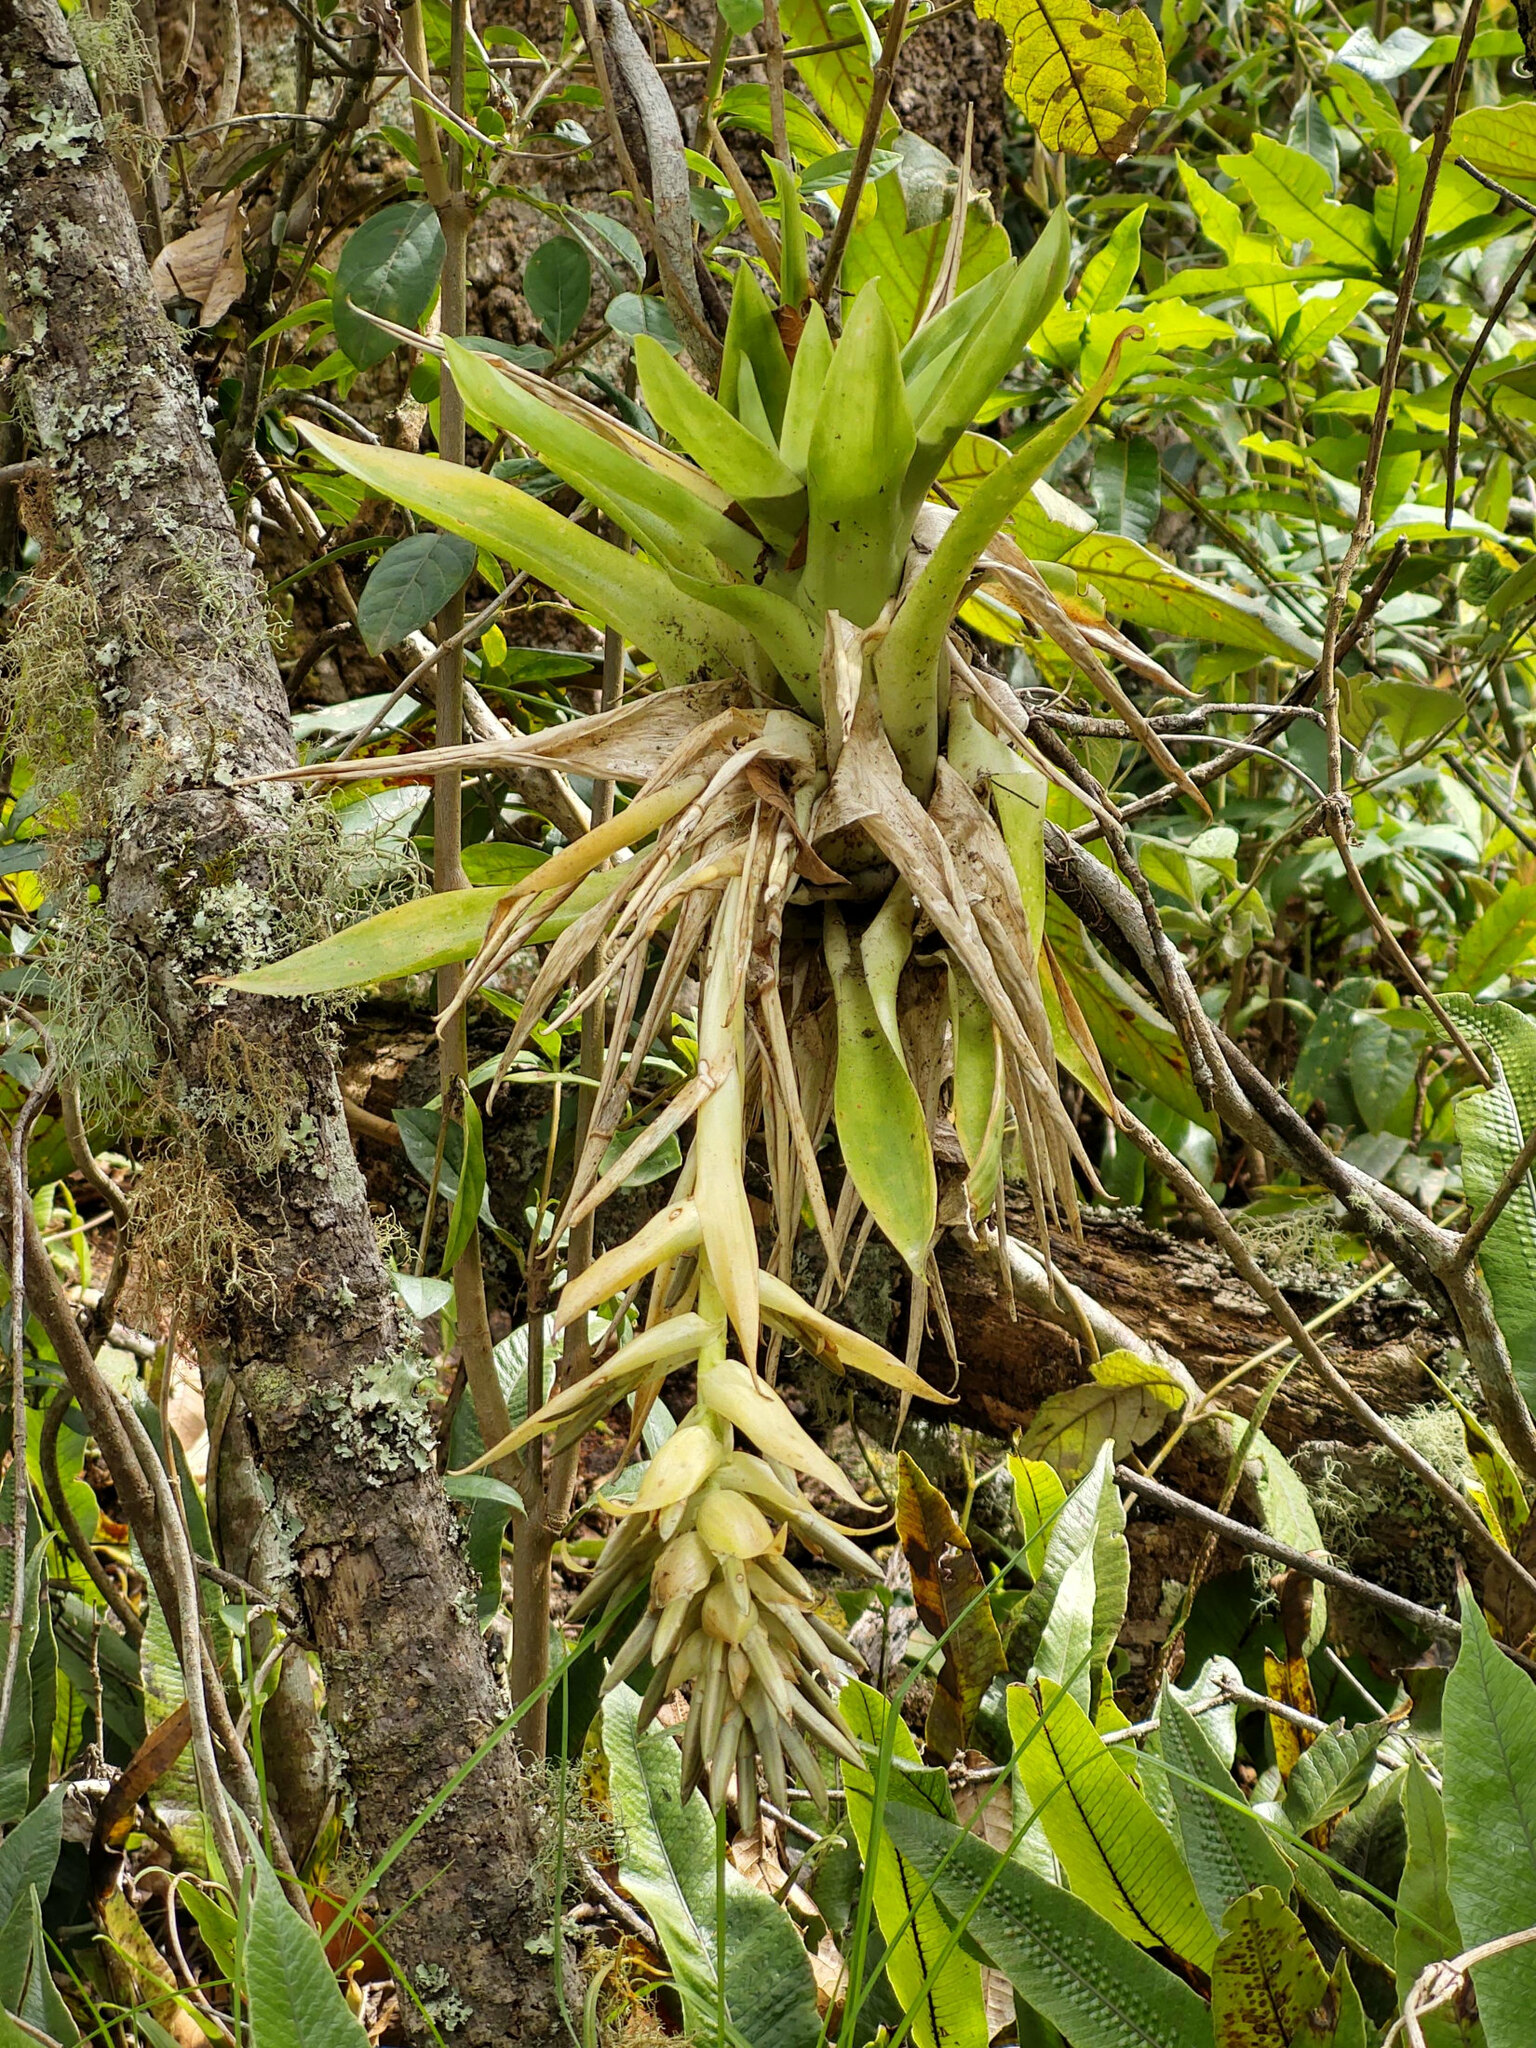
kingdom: Plantae
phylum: Tracheophyta
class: Liliopsida
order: Poales
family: Bromeliaceae
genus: Tillandsia
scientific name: Tillandsia biflora
